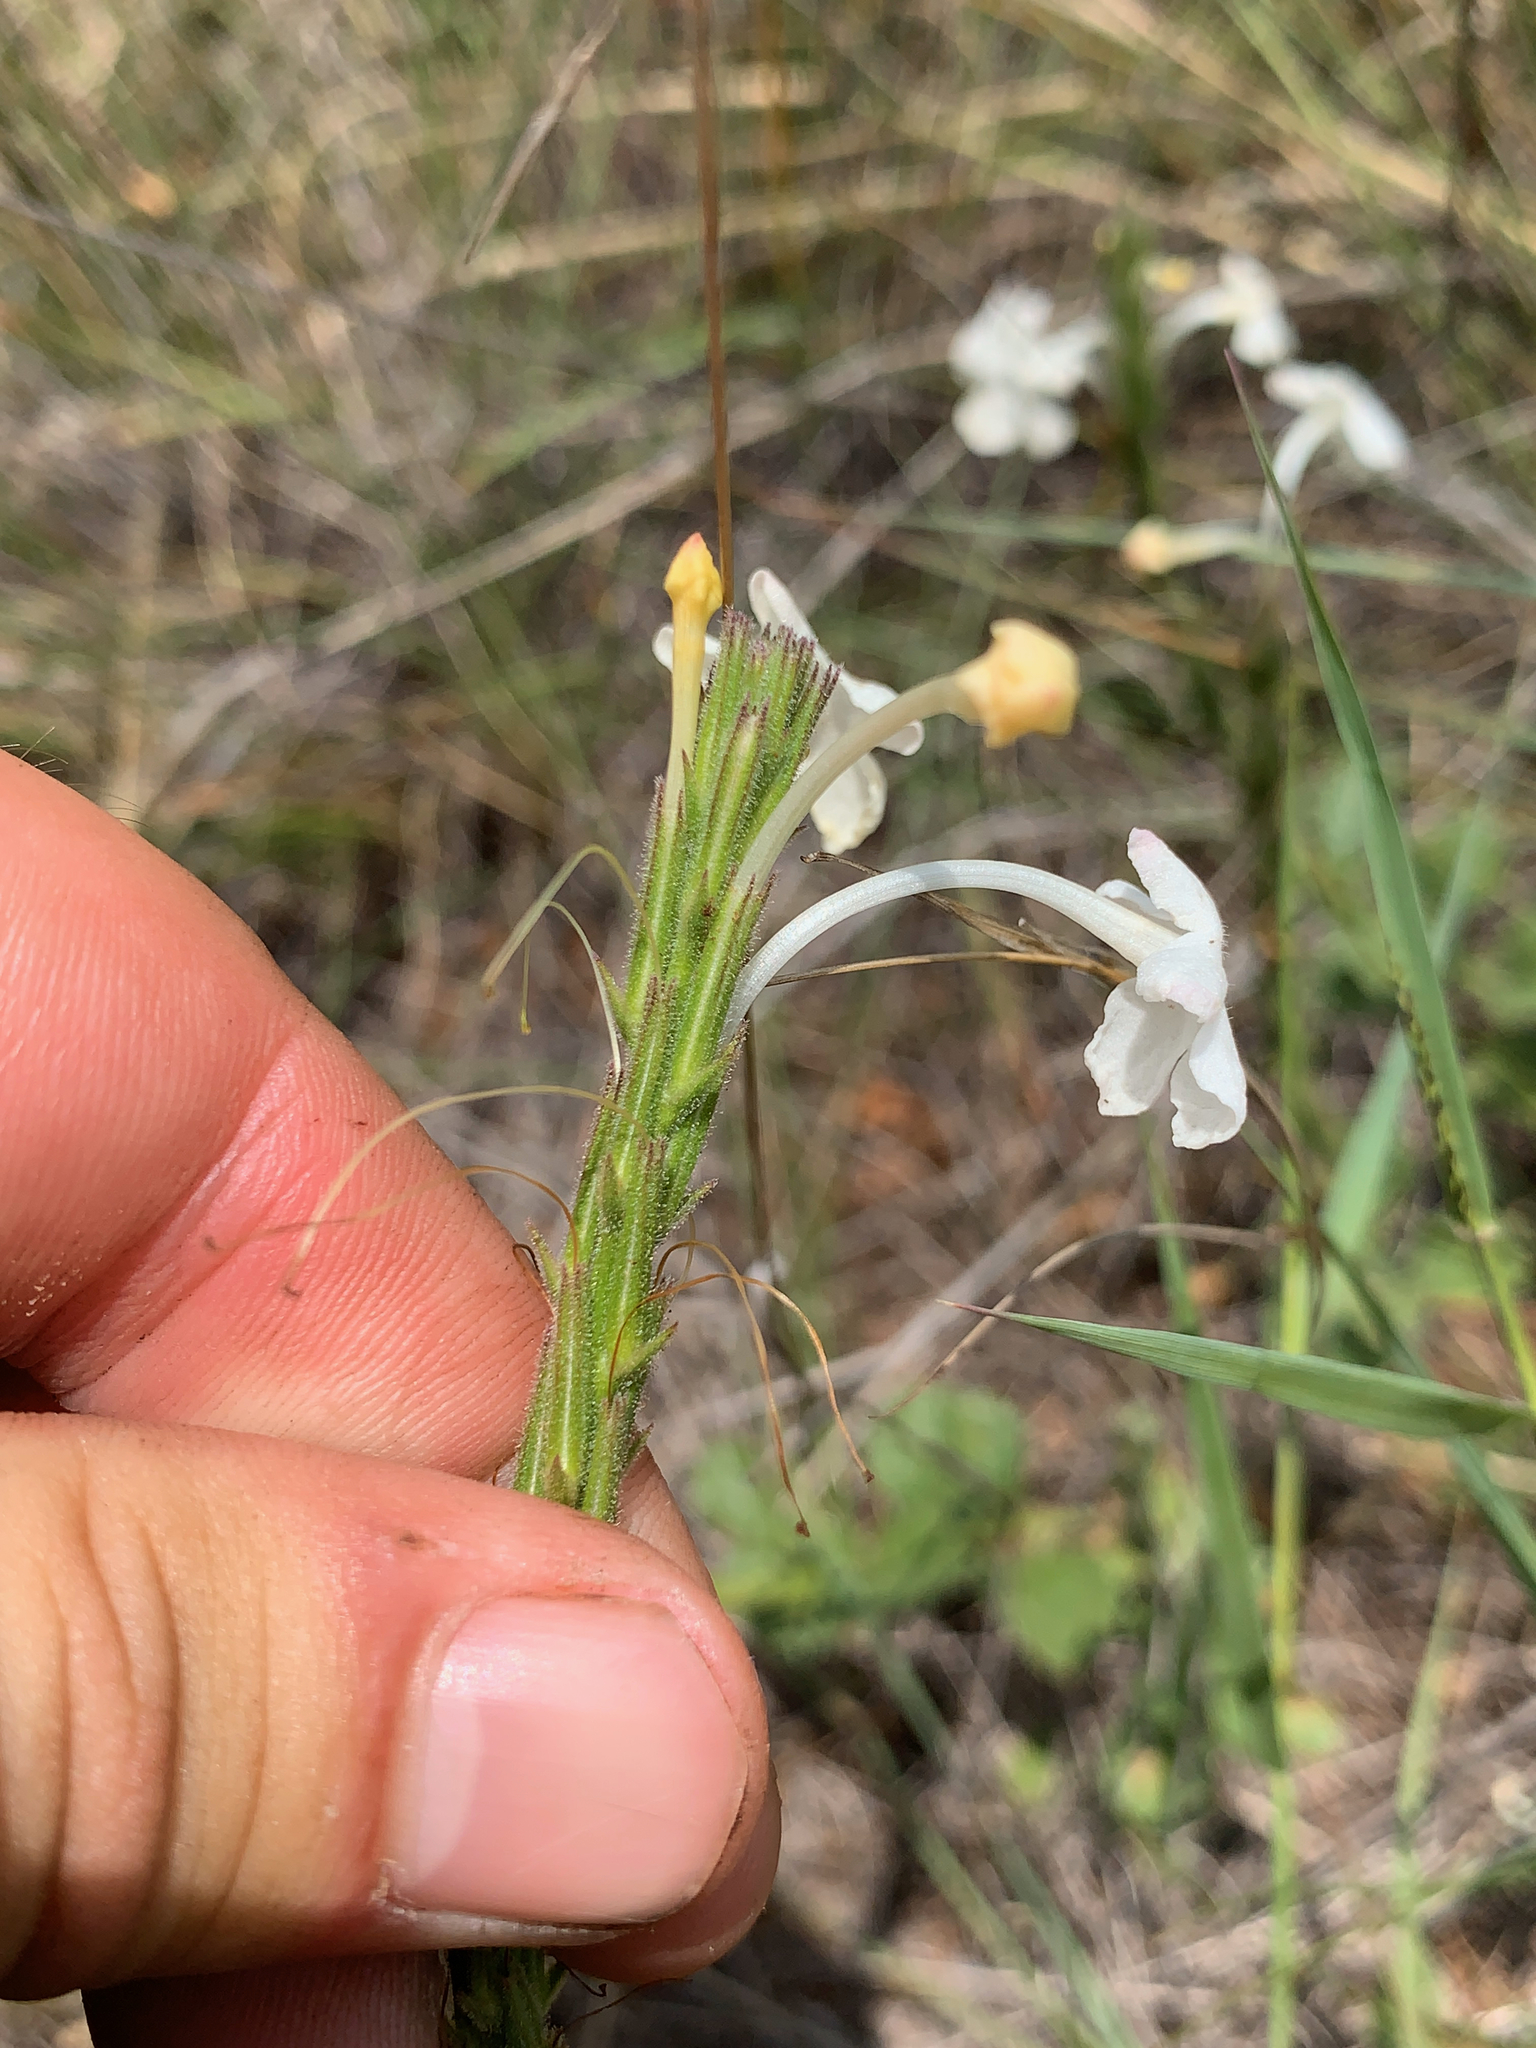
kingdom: Plantae
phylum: Tracheophyta
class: Magnoliopsida
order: Lamiales
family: Verbenaceae
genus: Chascanum
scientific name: Chascanum hederaceum
